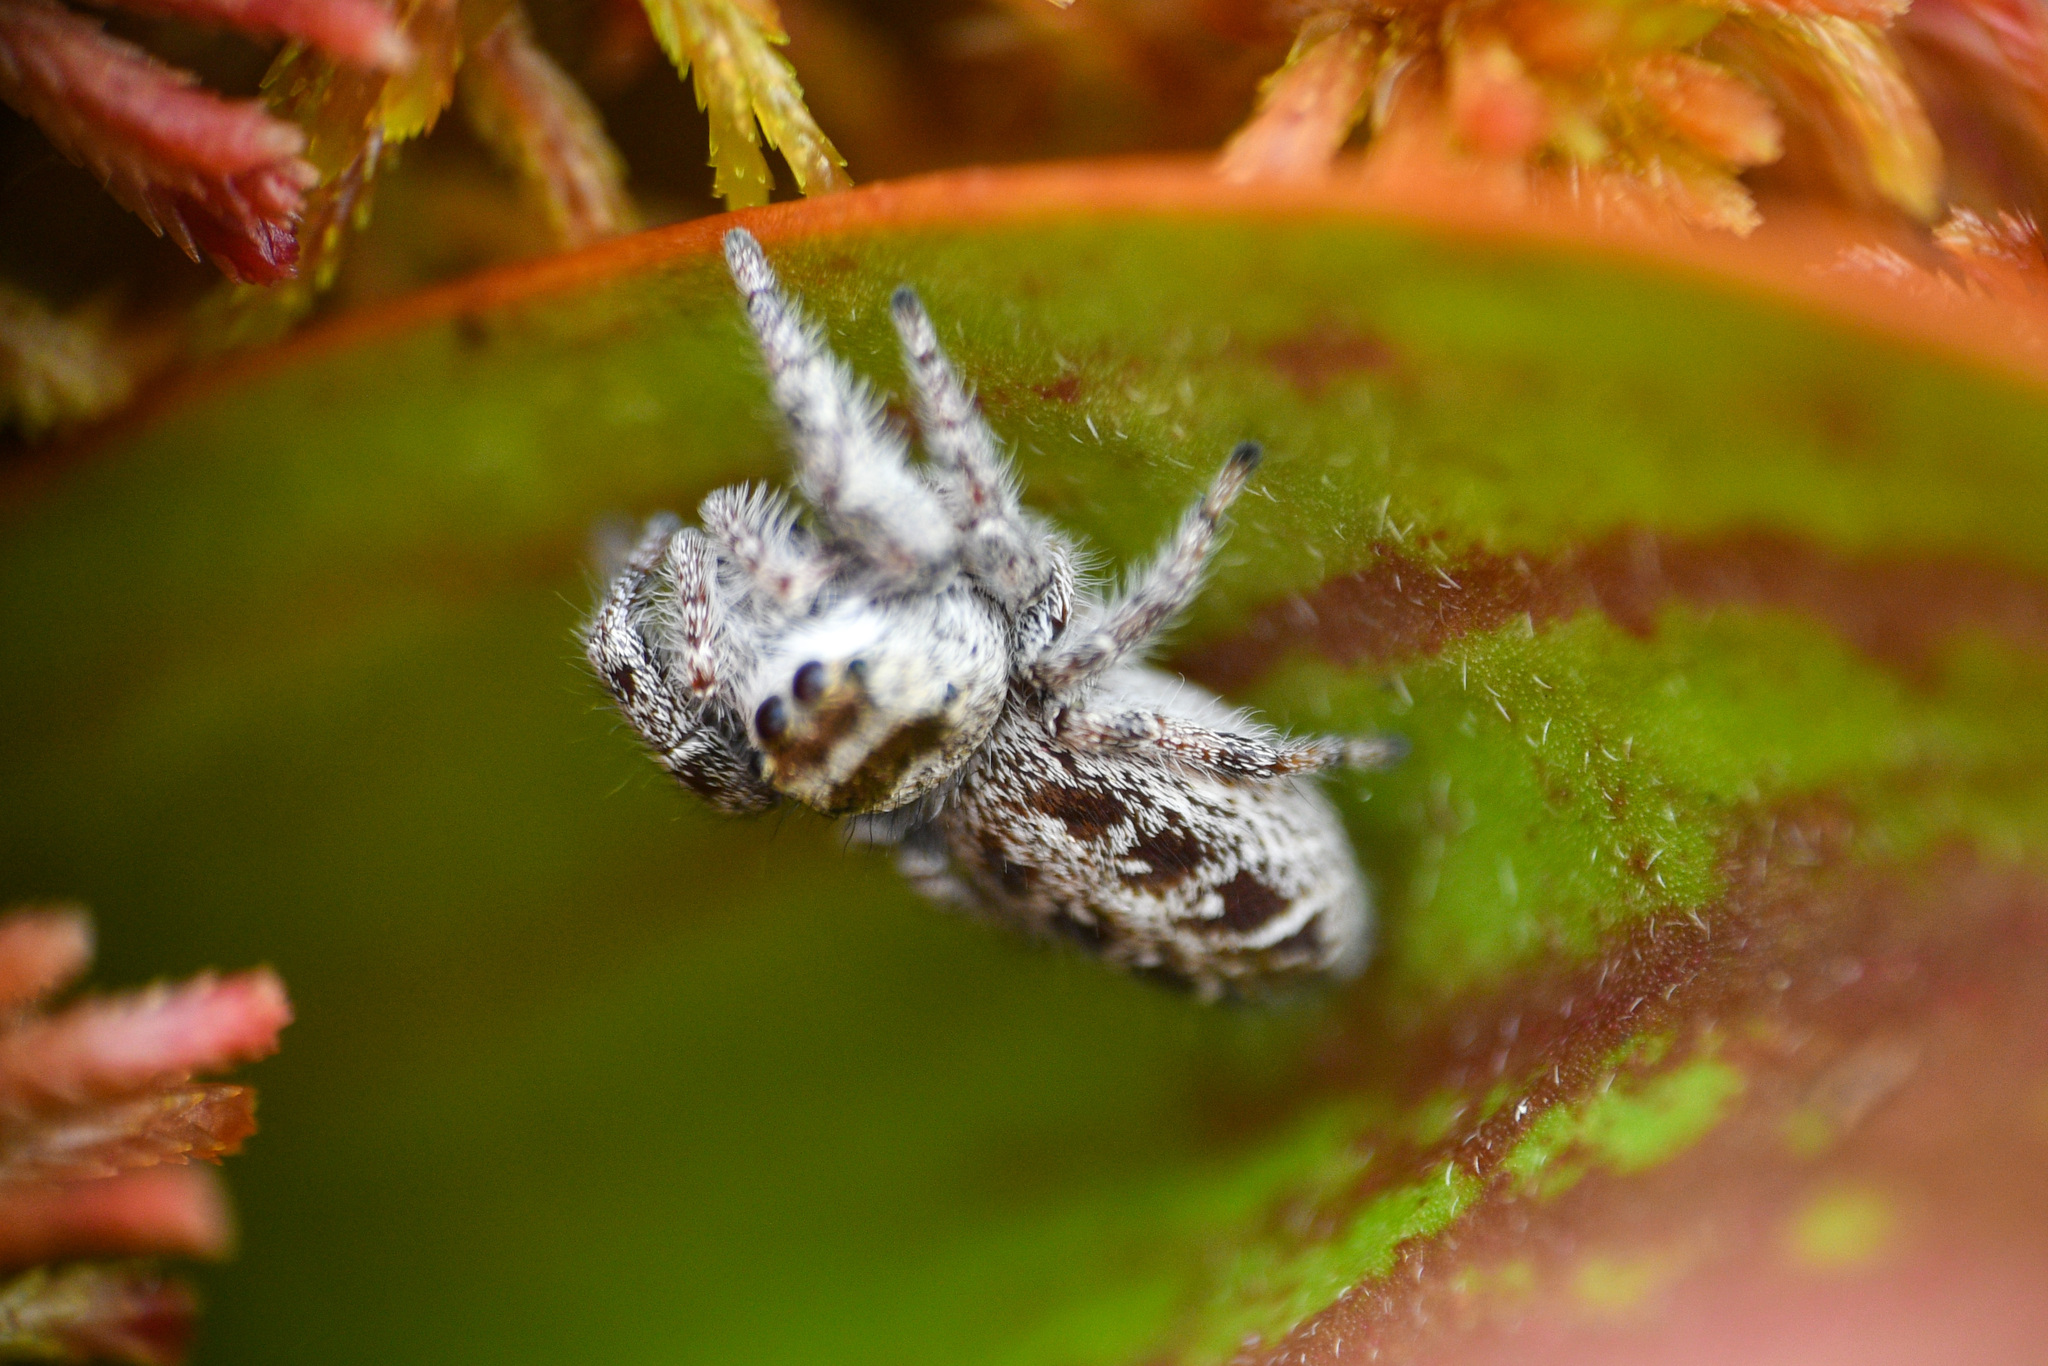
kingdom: Animalia
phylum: Arthropoda
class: Arachnida
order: Araneae
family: Salticidae
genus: Eris
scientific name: Eris militaris
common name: Bronze jumper
